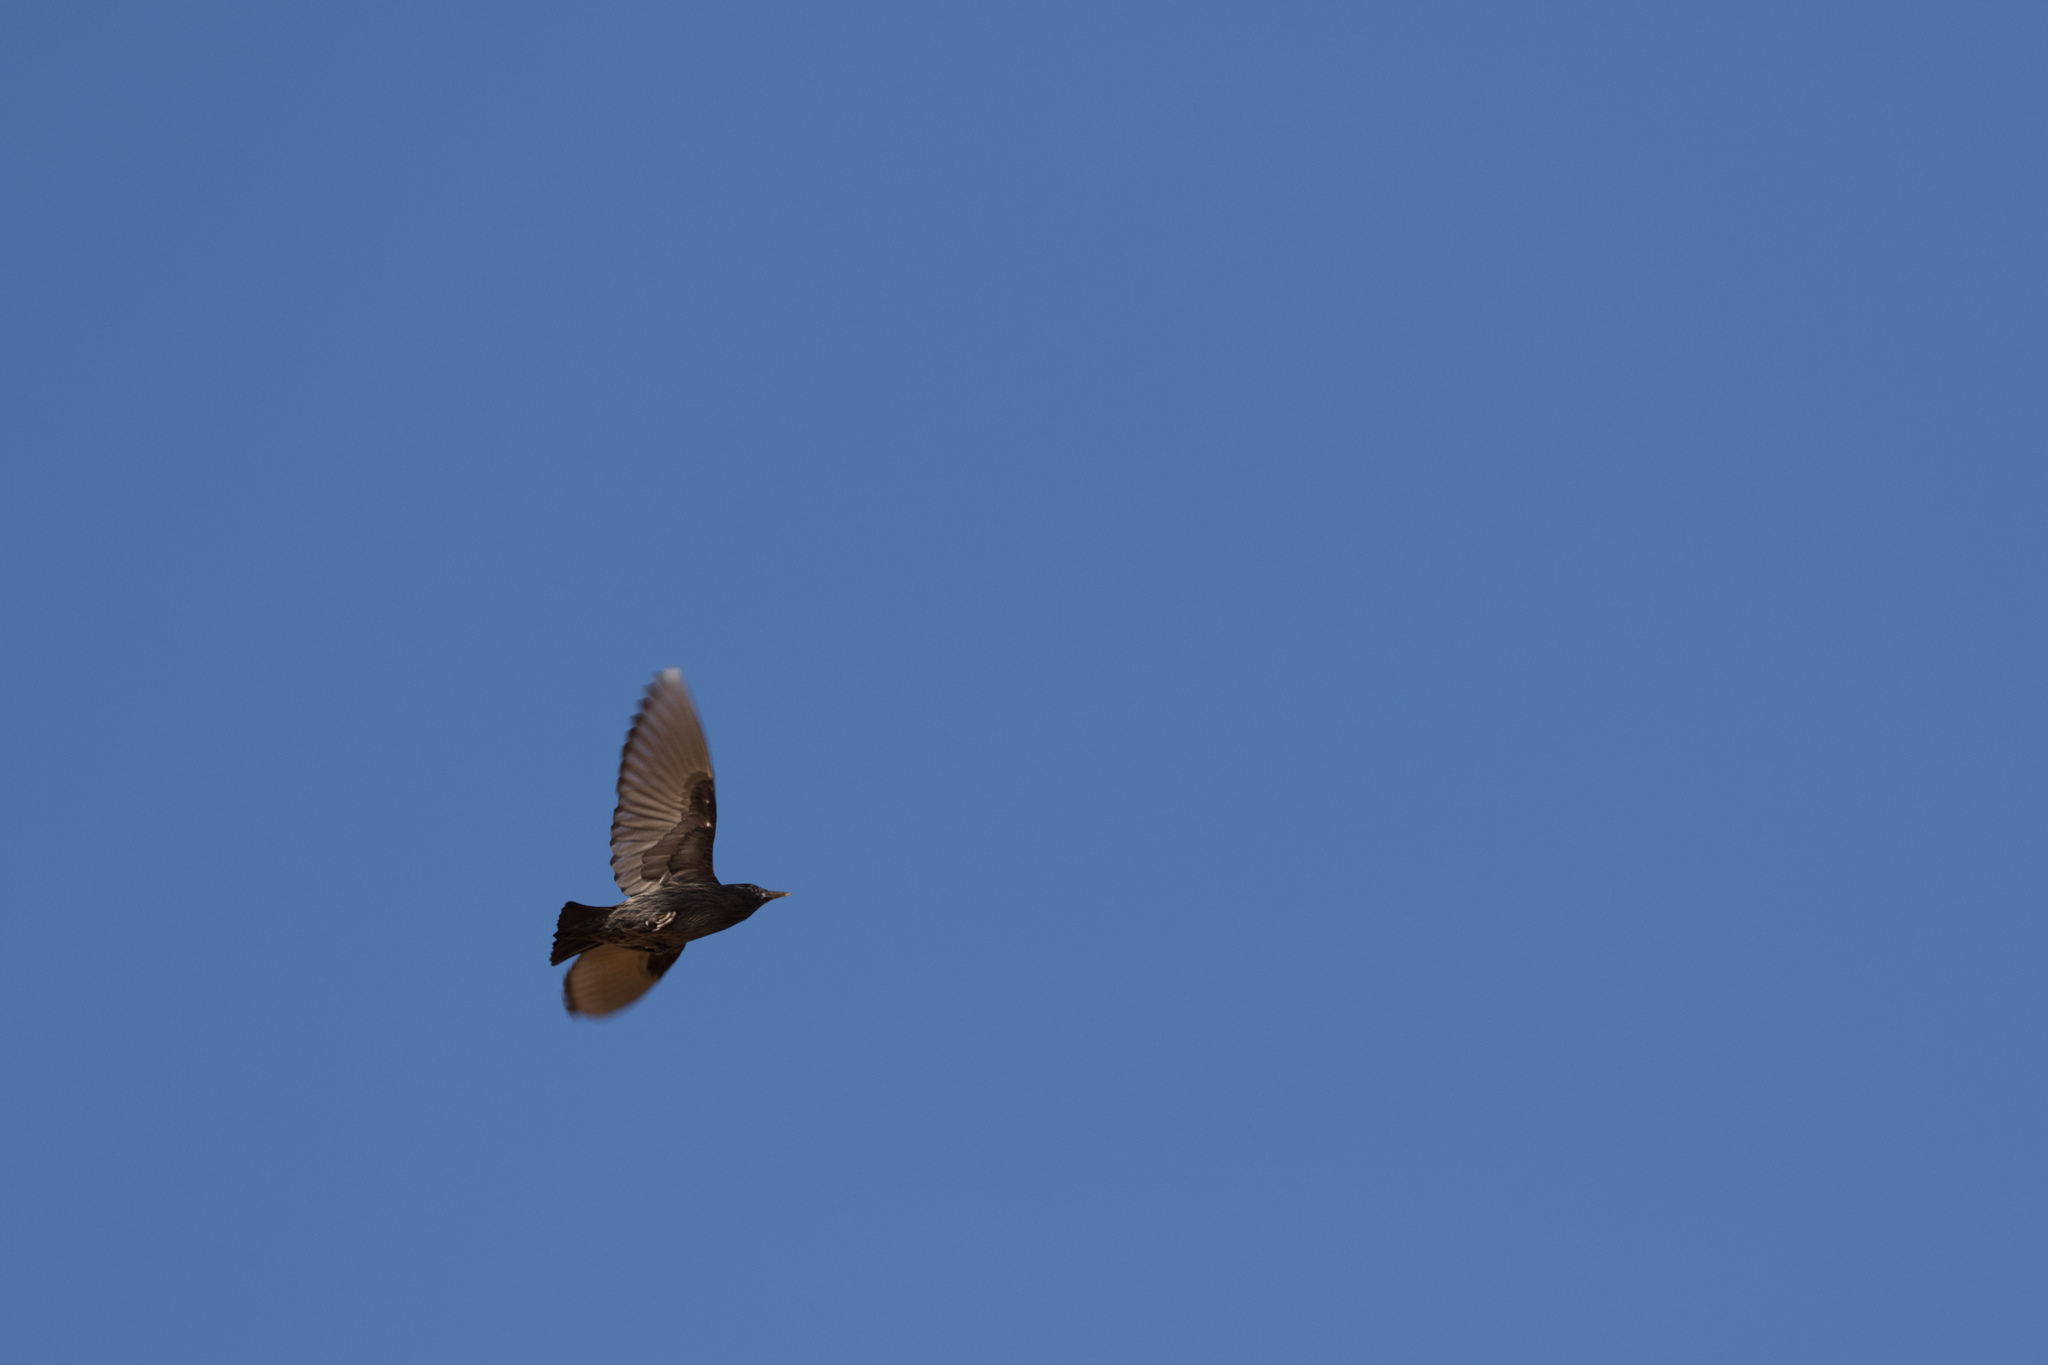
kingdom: Animalia
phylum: Chordata
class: Aves
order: Passeriformes
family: Sturnidae
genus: Sturnus
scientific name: Sturnus unicolor
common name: Spotless starling
